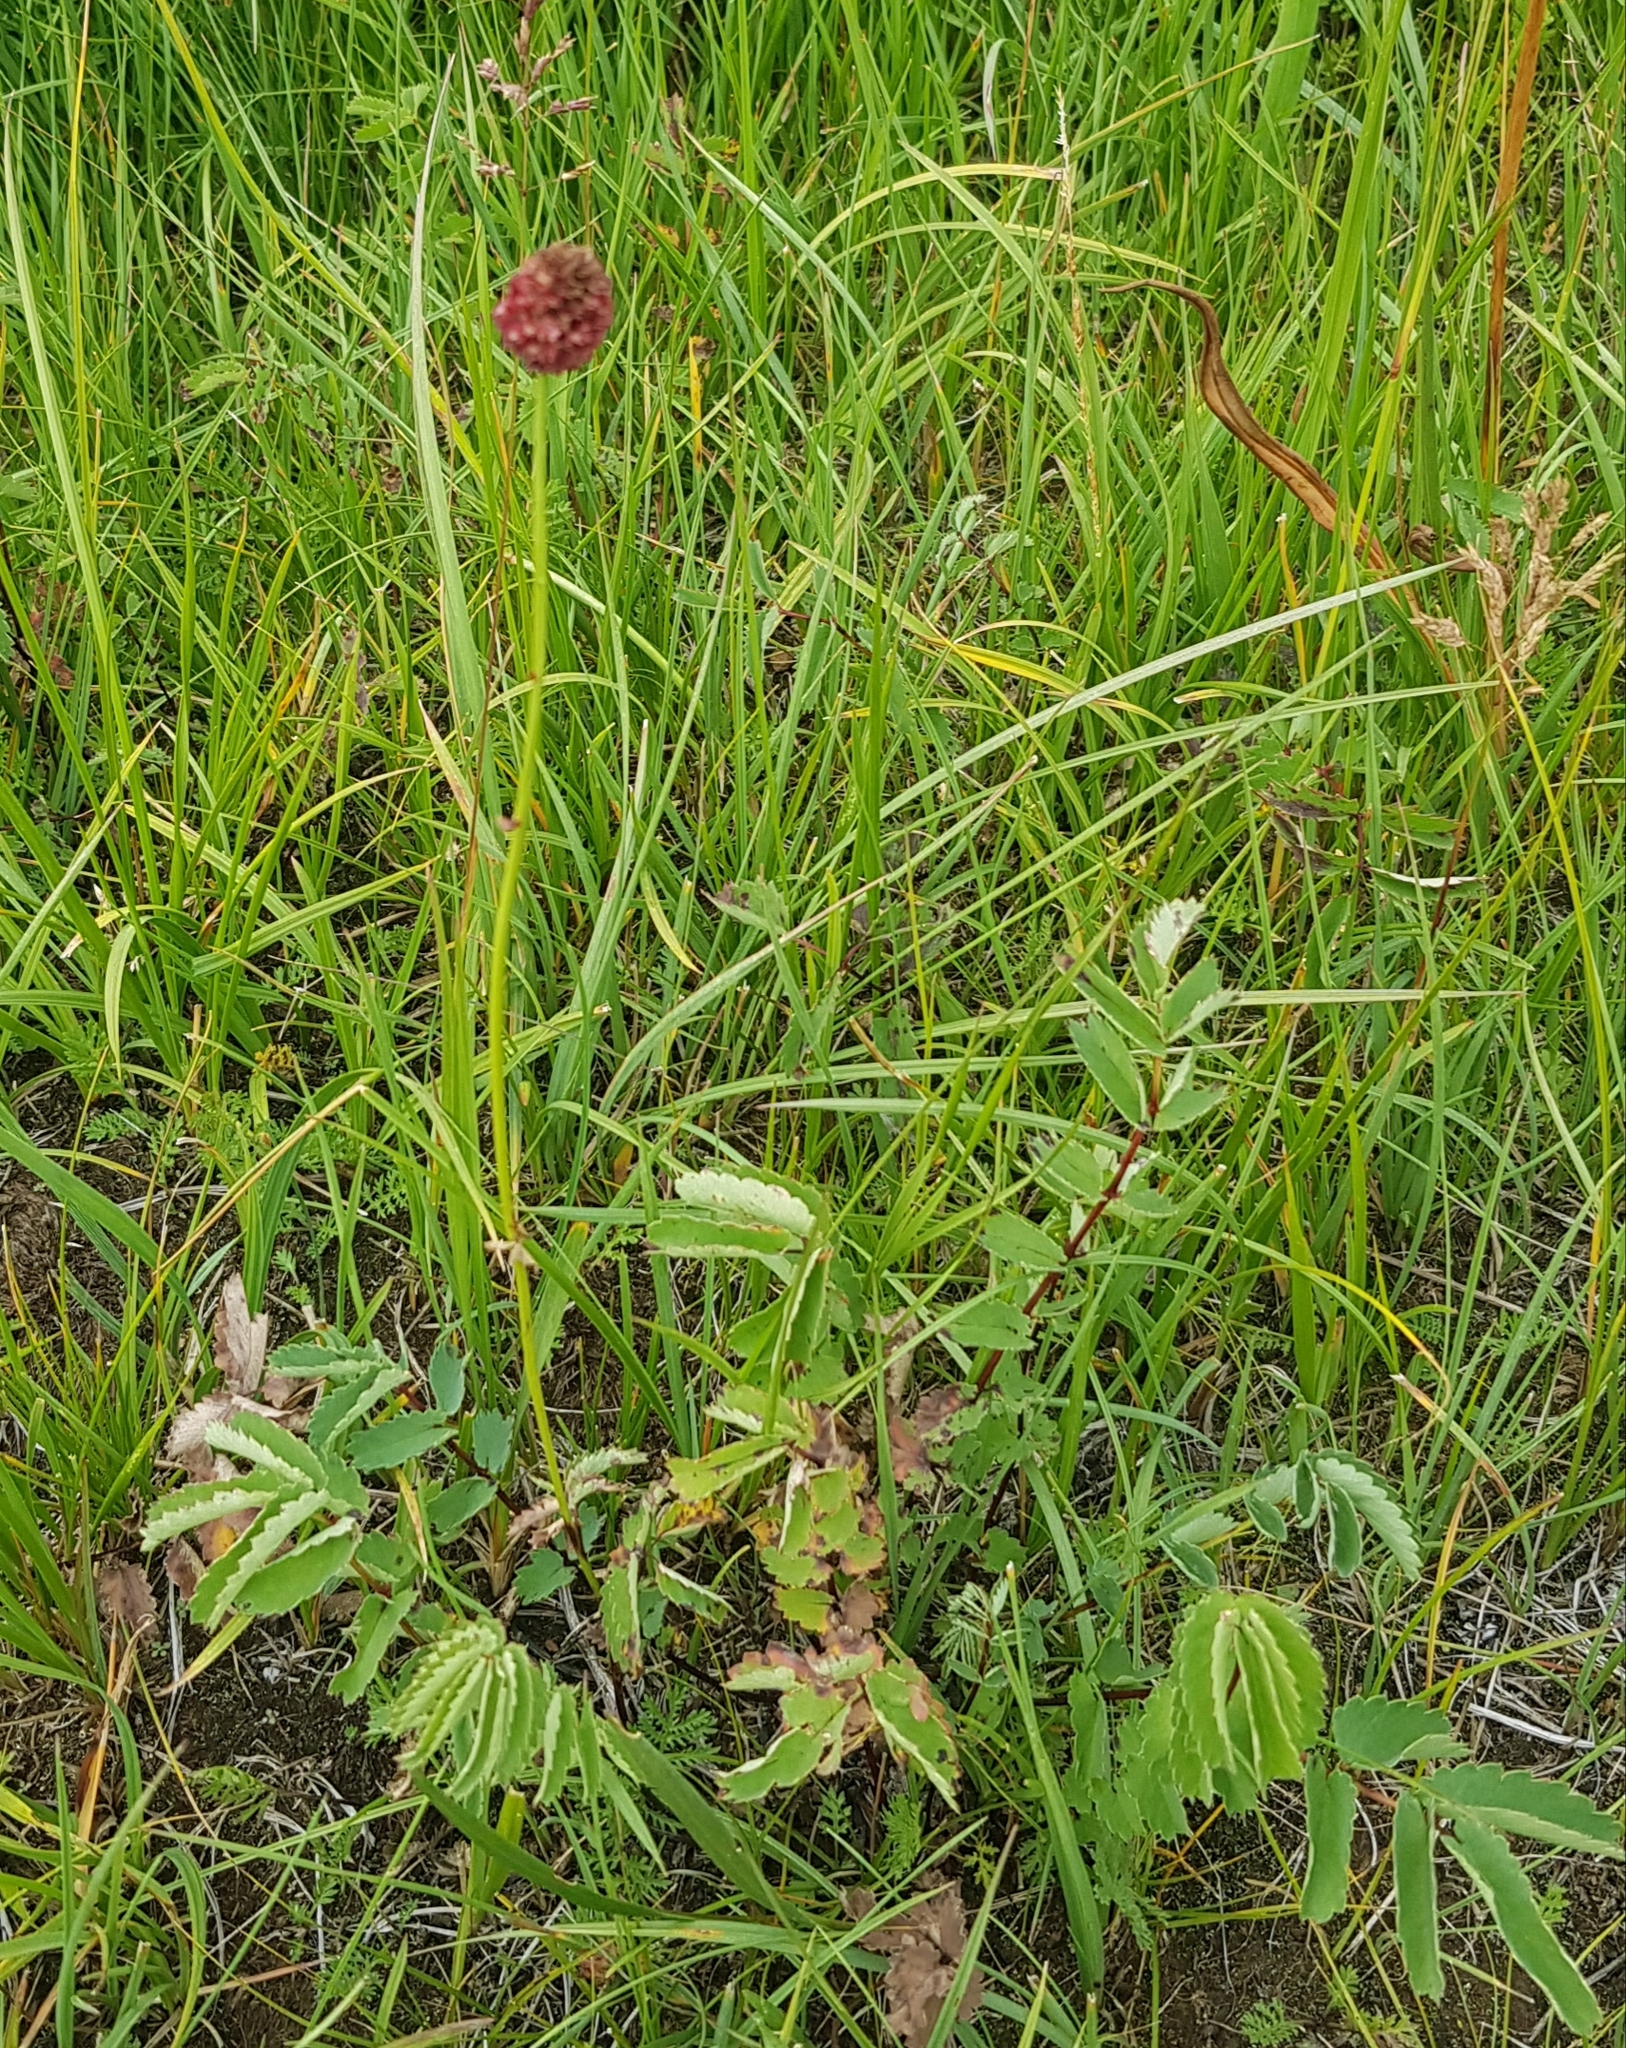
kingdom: Plantae
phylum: Tracheophyta
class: Magnoliopsida
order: Rosales
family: Rosaceae
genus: Sanguisorba
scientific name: Sanguisorba officinalis
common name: Great burnet
